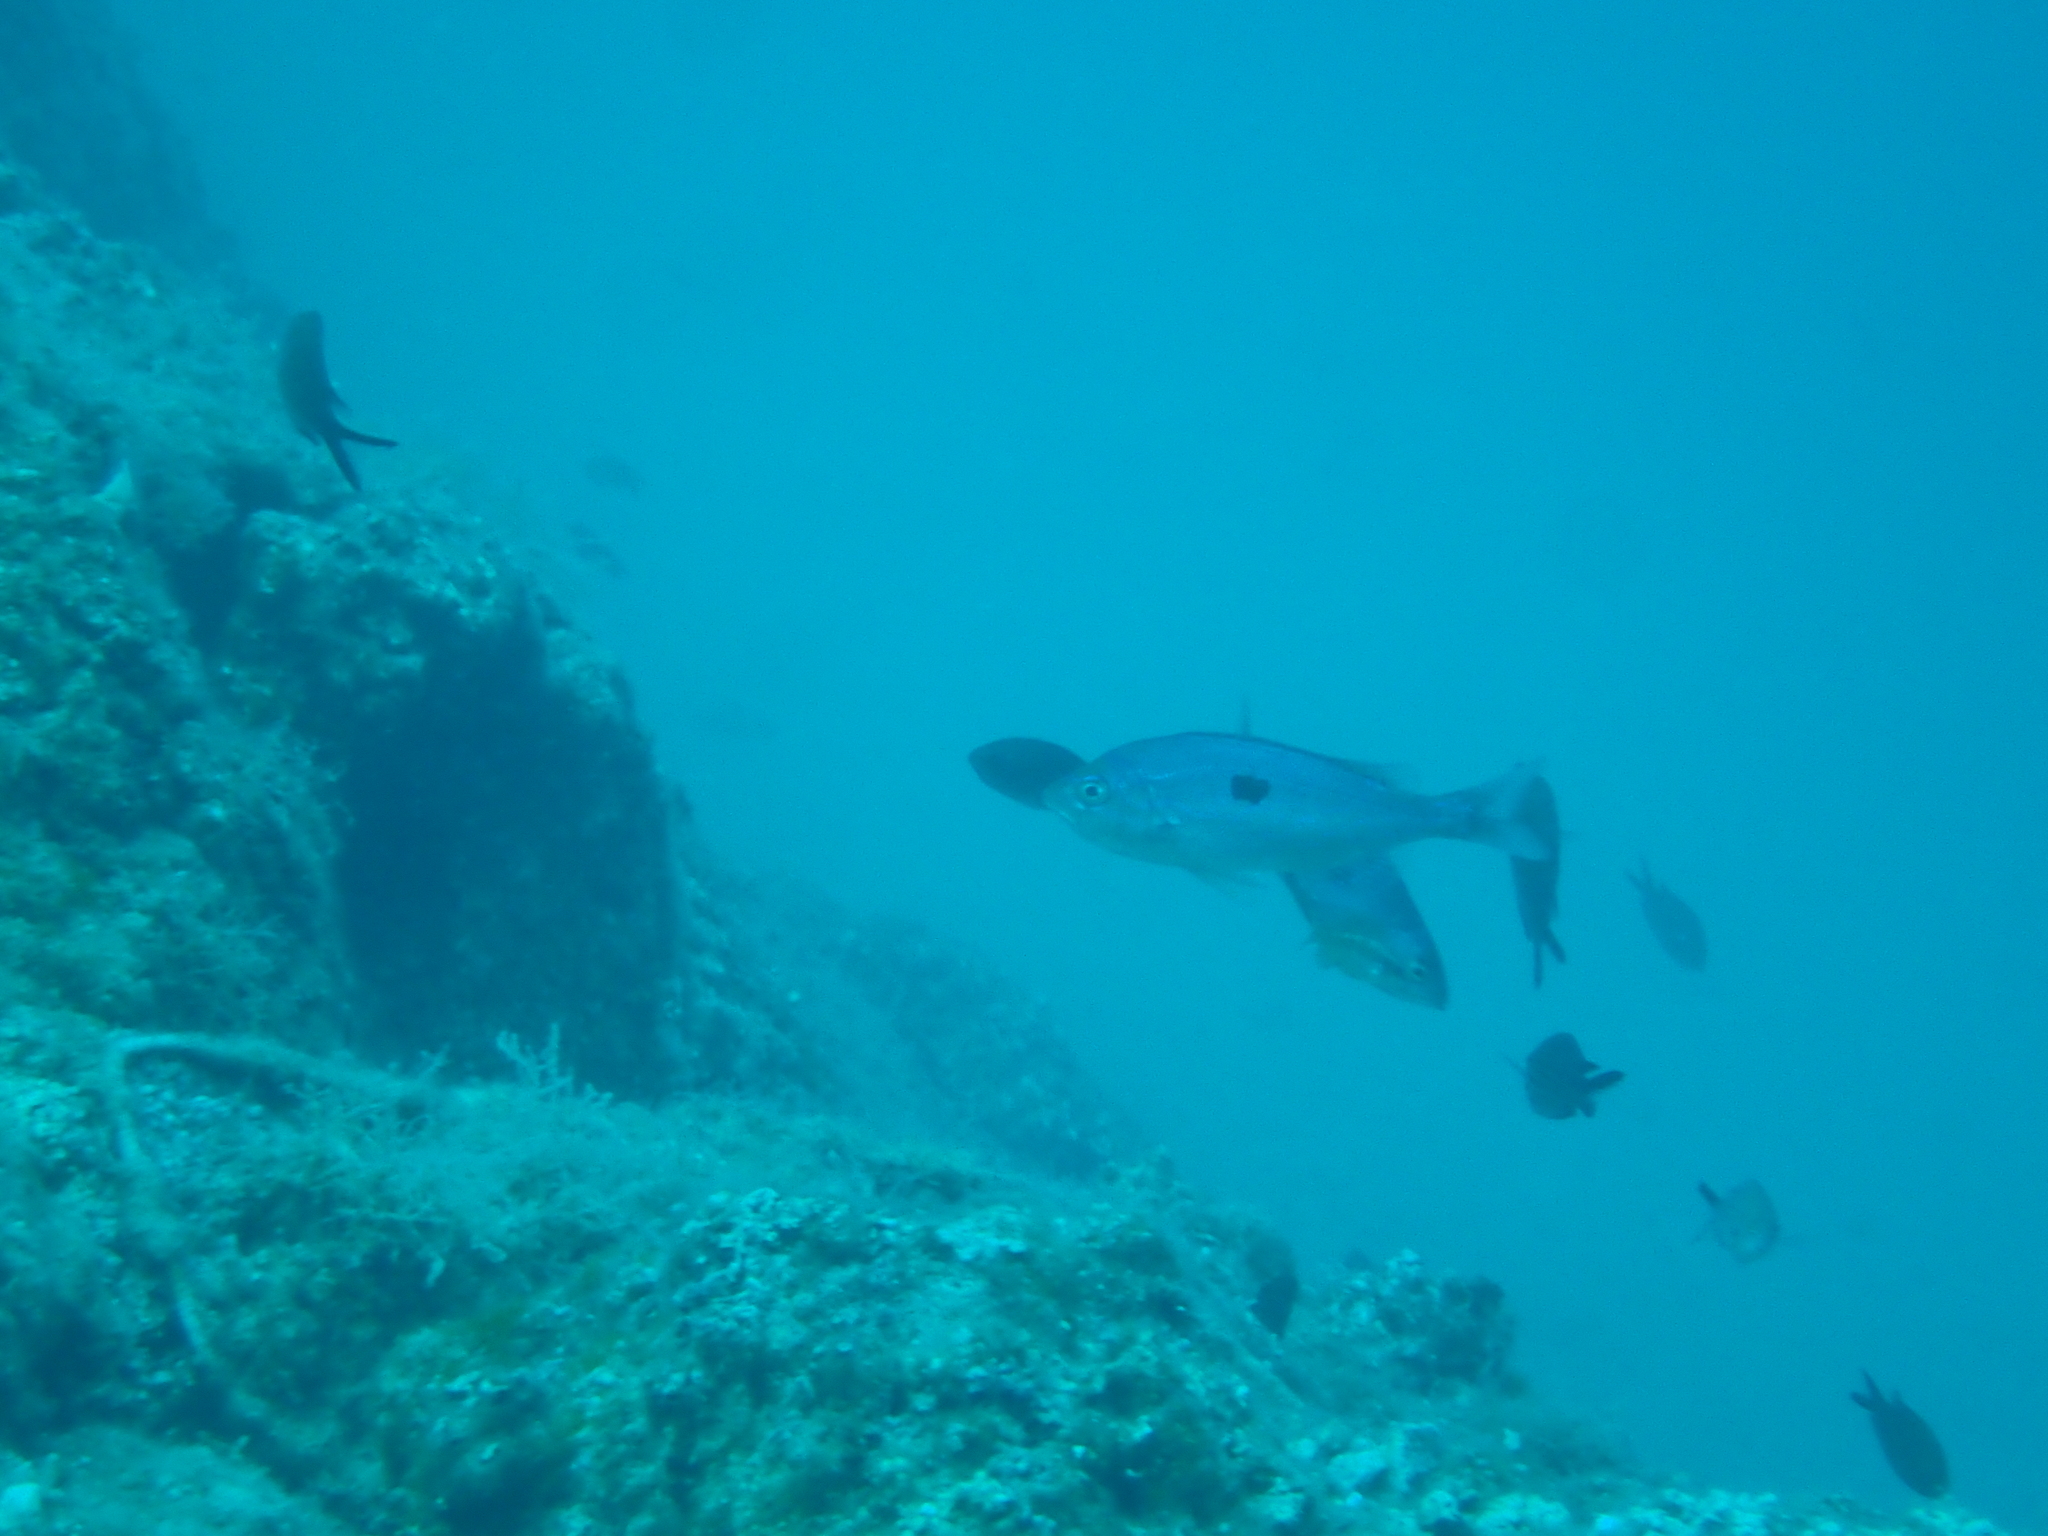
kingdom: Animalia
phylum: Chordata
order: Perciformes
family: Sparidae
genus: Spicara
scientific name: Spicara maena
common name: Blotched picarel
